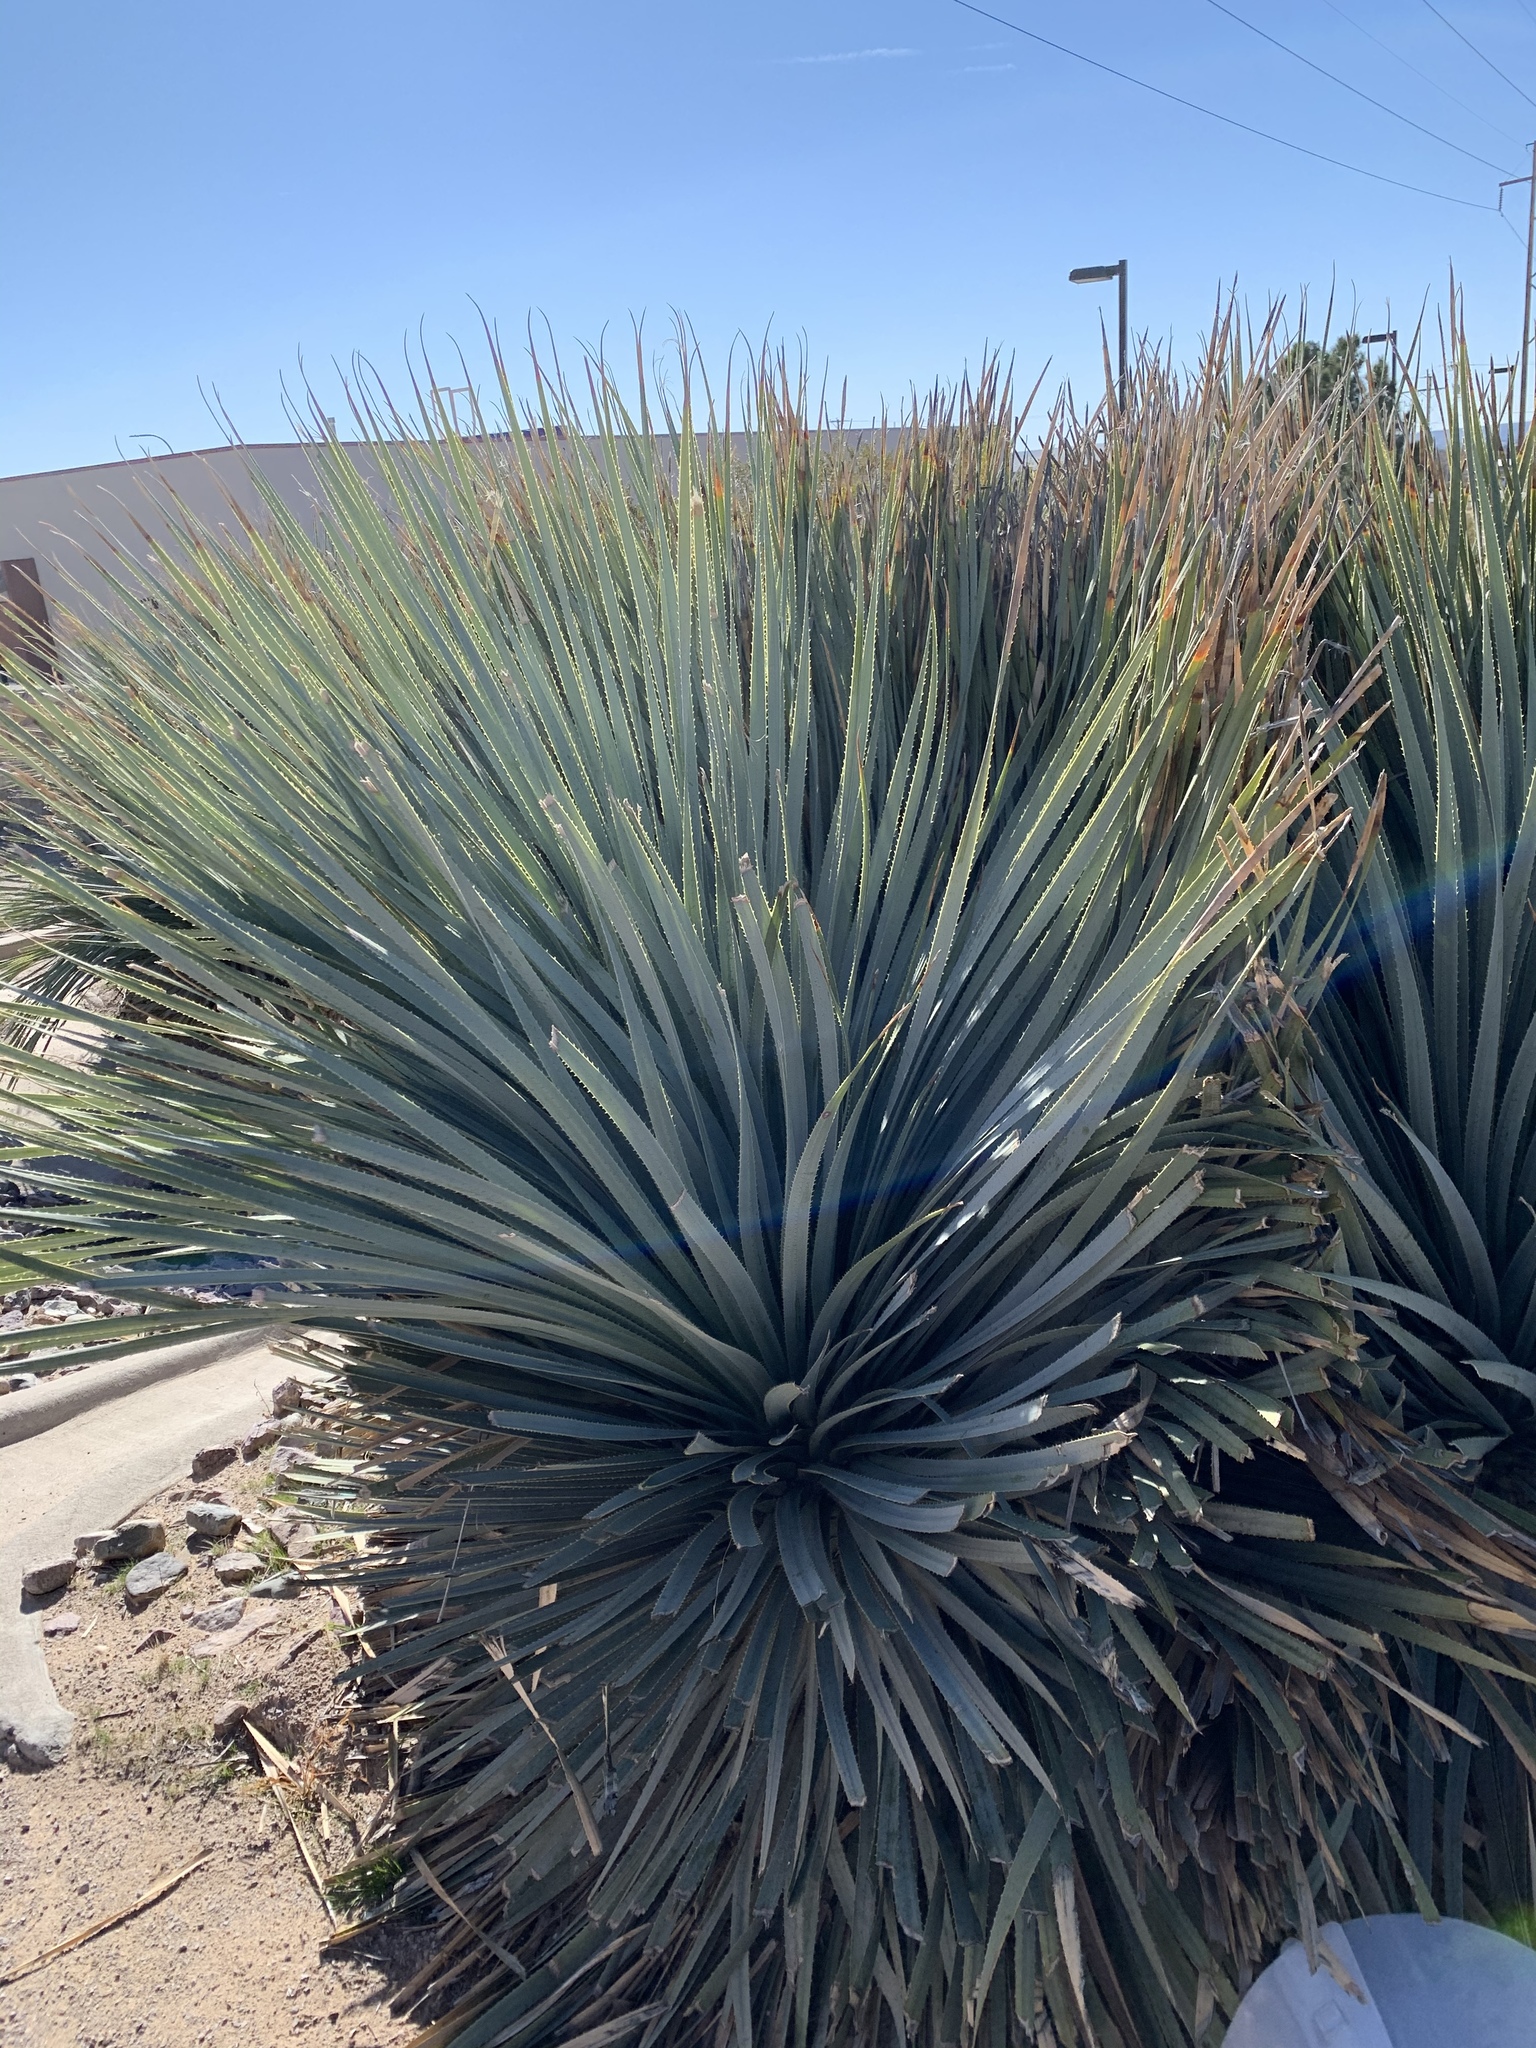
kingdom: Plantae
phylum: Tracheophyta
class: Liliopsida
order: Asparagales
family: Asparagaceae
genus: Dasylirion
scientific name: Dasylirion wheeleri
